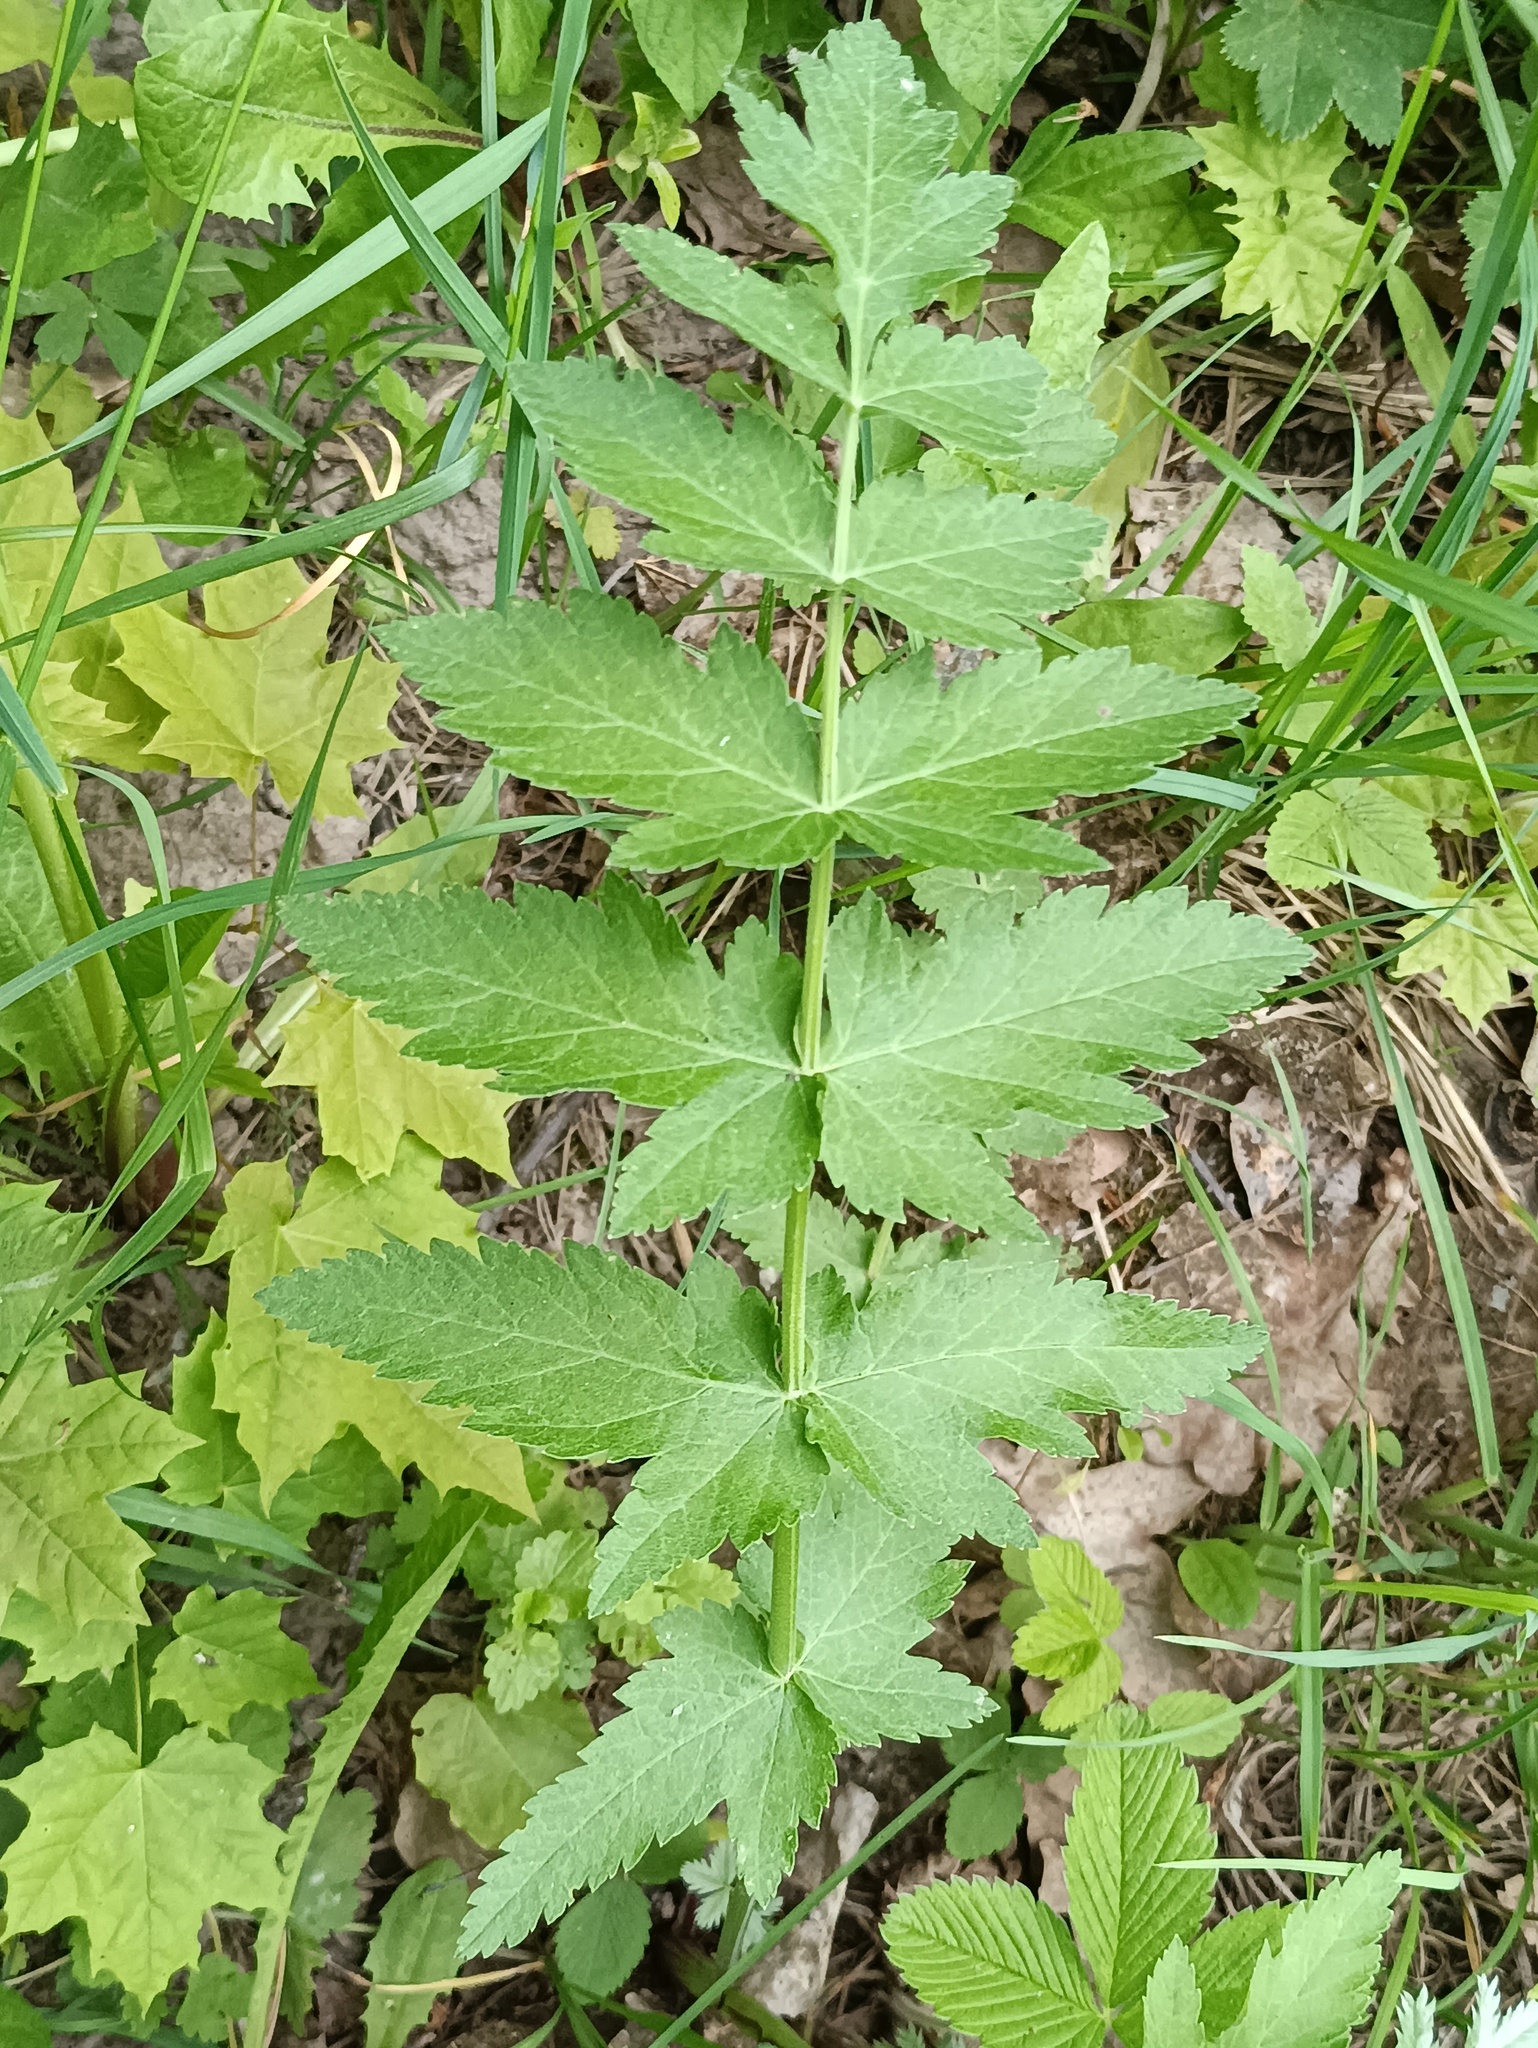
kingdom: Plantae
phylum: Tracheophyta
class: Magnoliopsida
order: Apiales
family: Apiaceae
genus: Pastinaca
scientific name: Pastinaca sativa
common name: Wild parsnip
